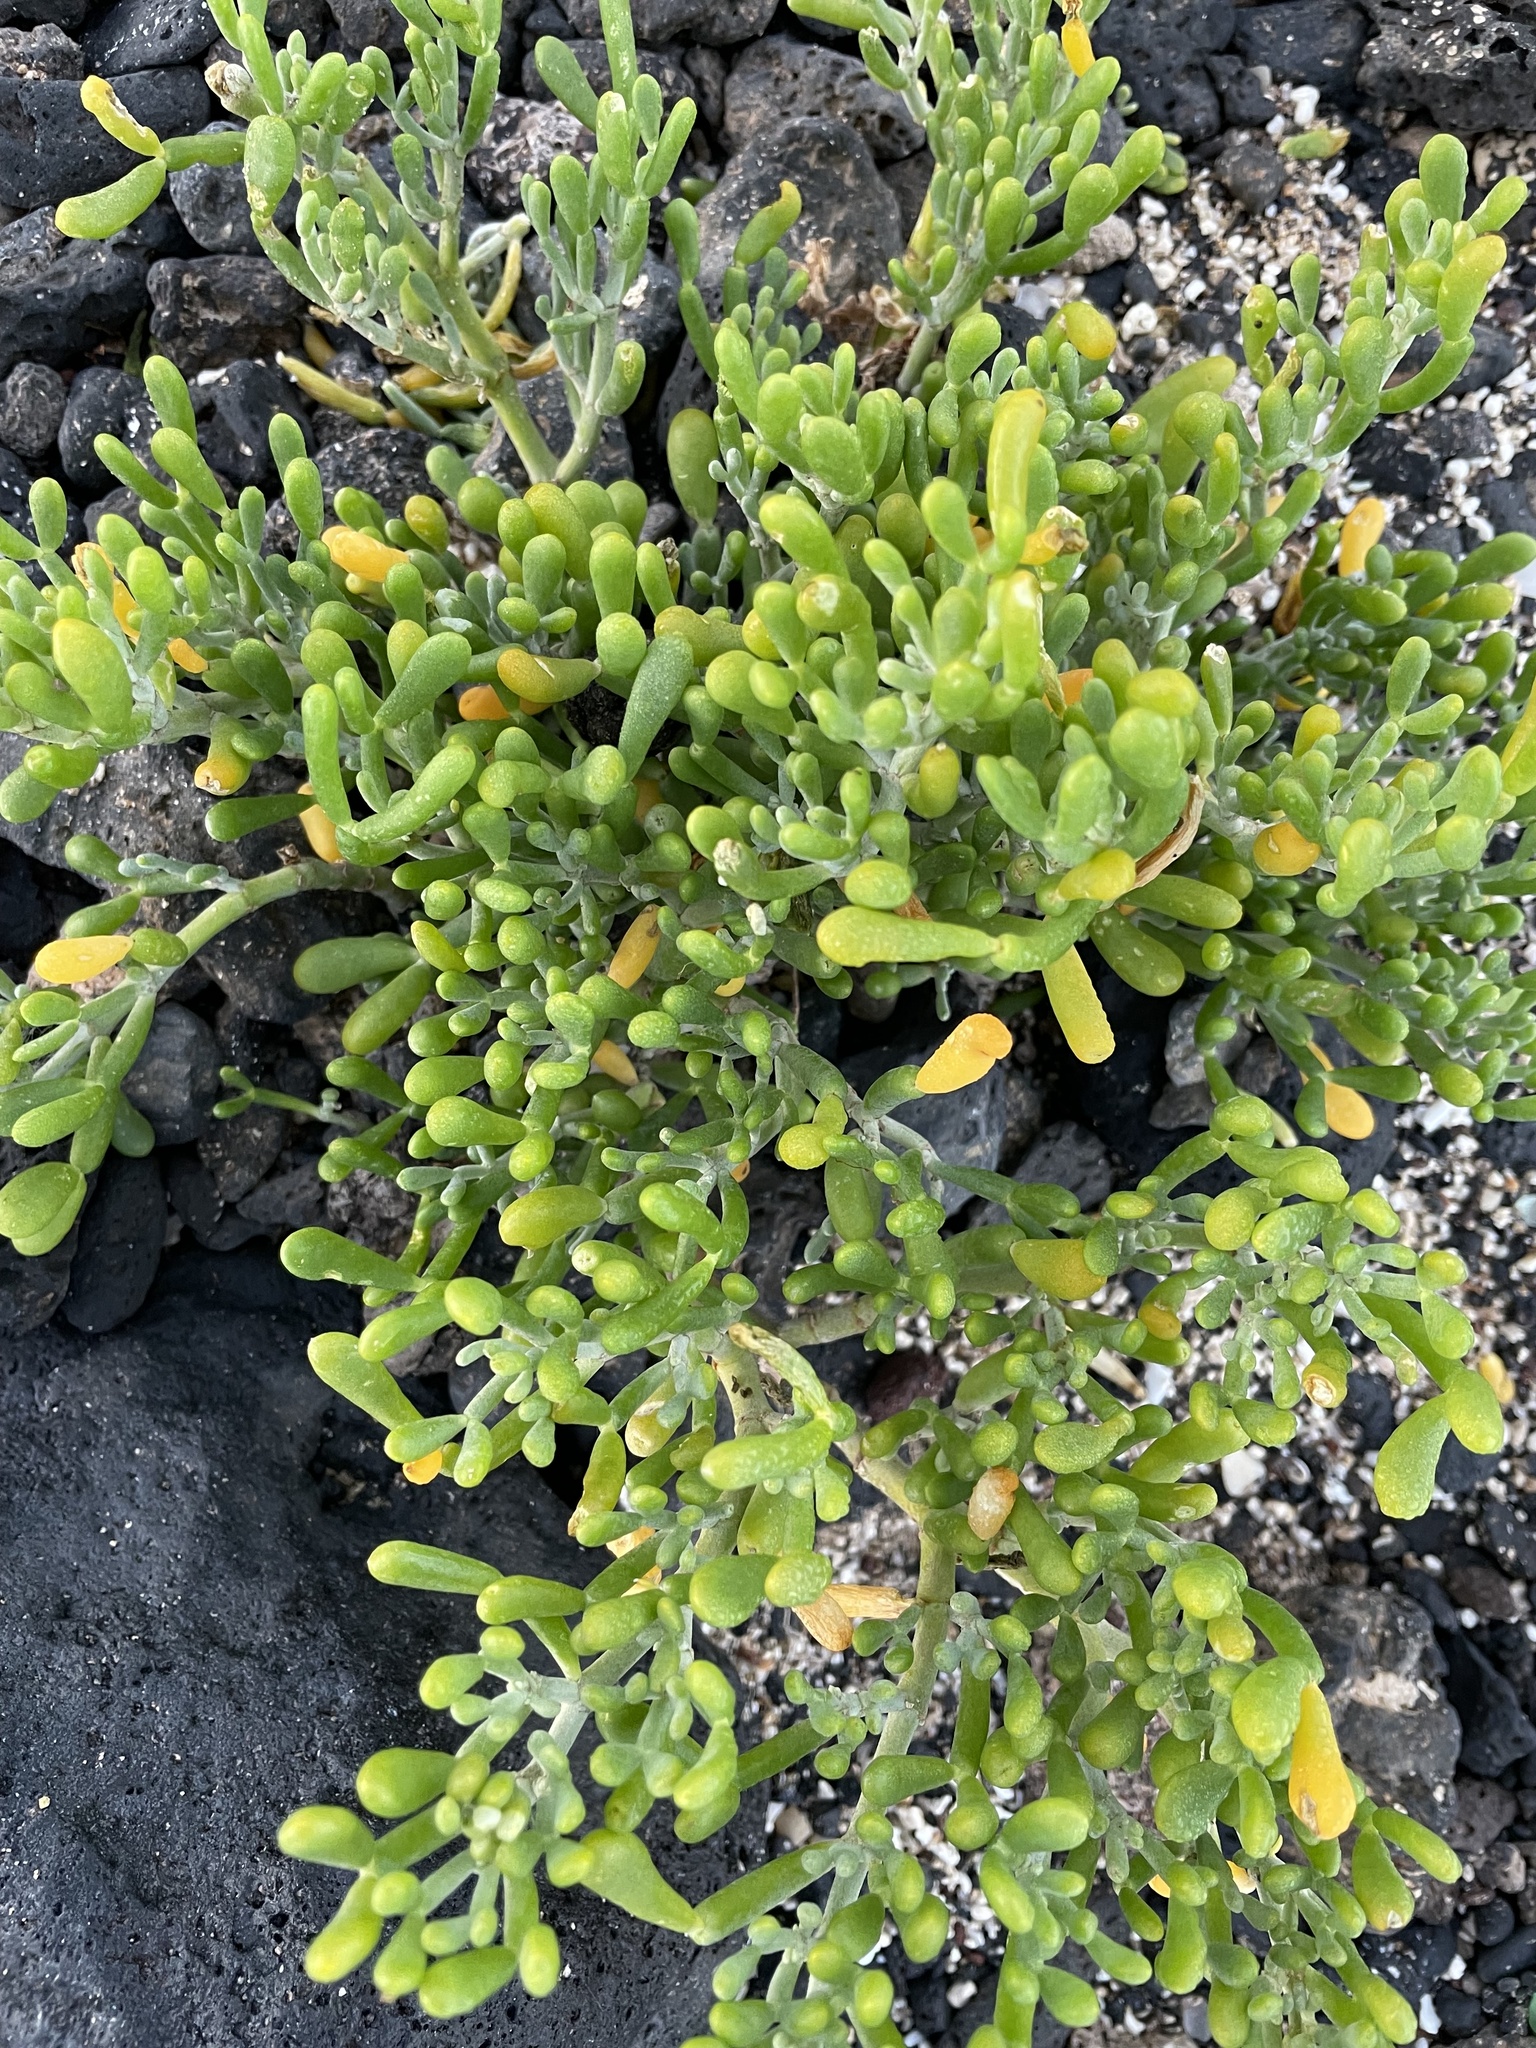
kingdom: Plantae
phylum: Tracheophyta
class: Magnoliopsida
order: Zygophyllales
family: Zygophyllaceae
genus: Tetraena
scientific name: Tetraena fontanesii
